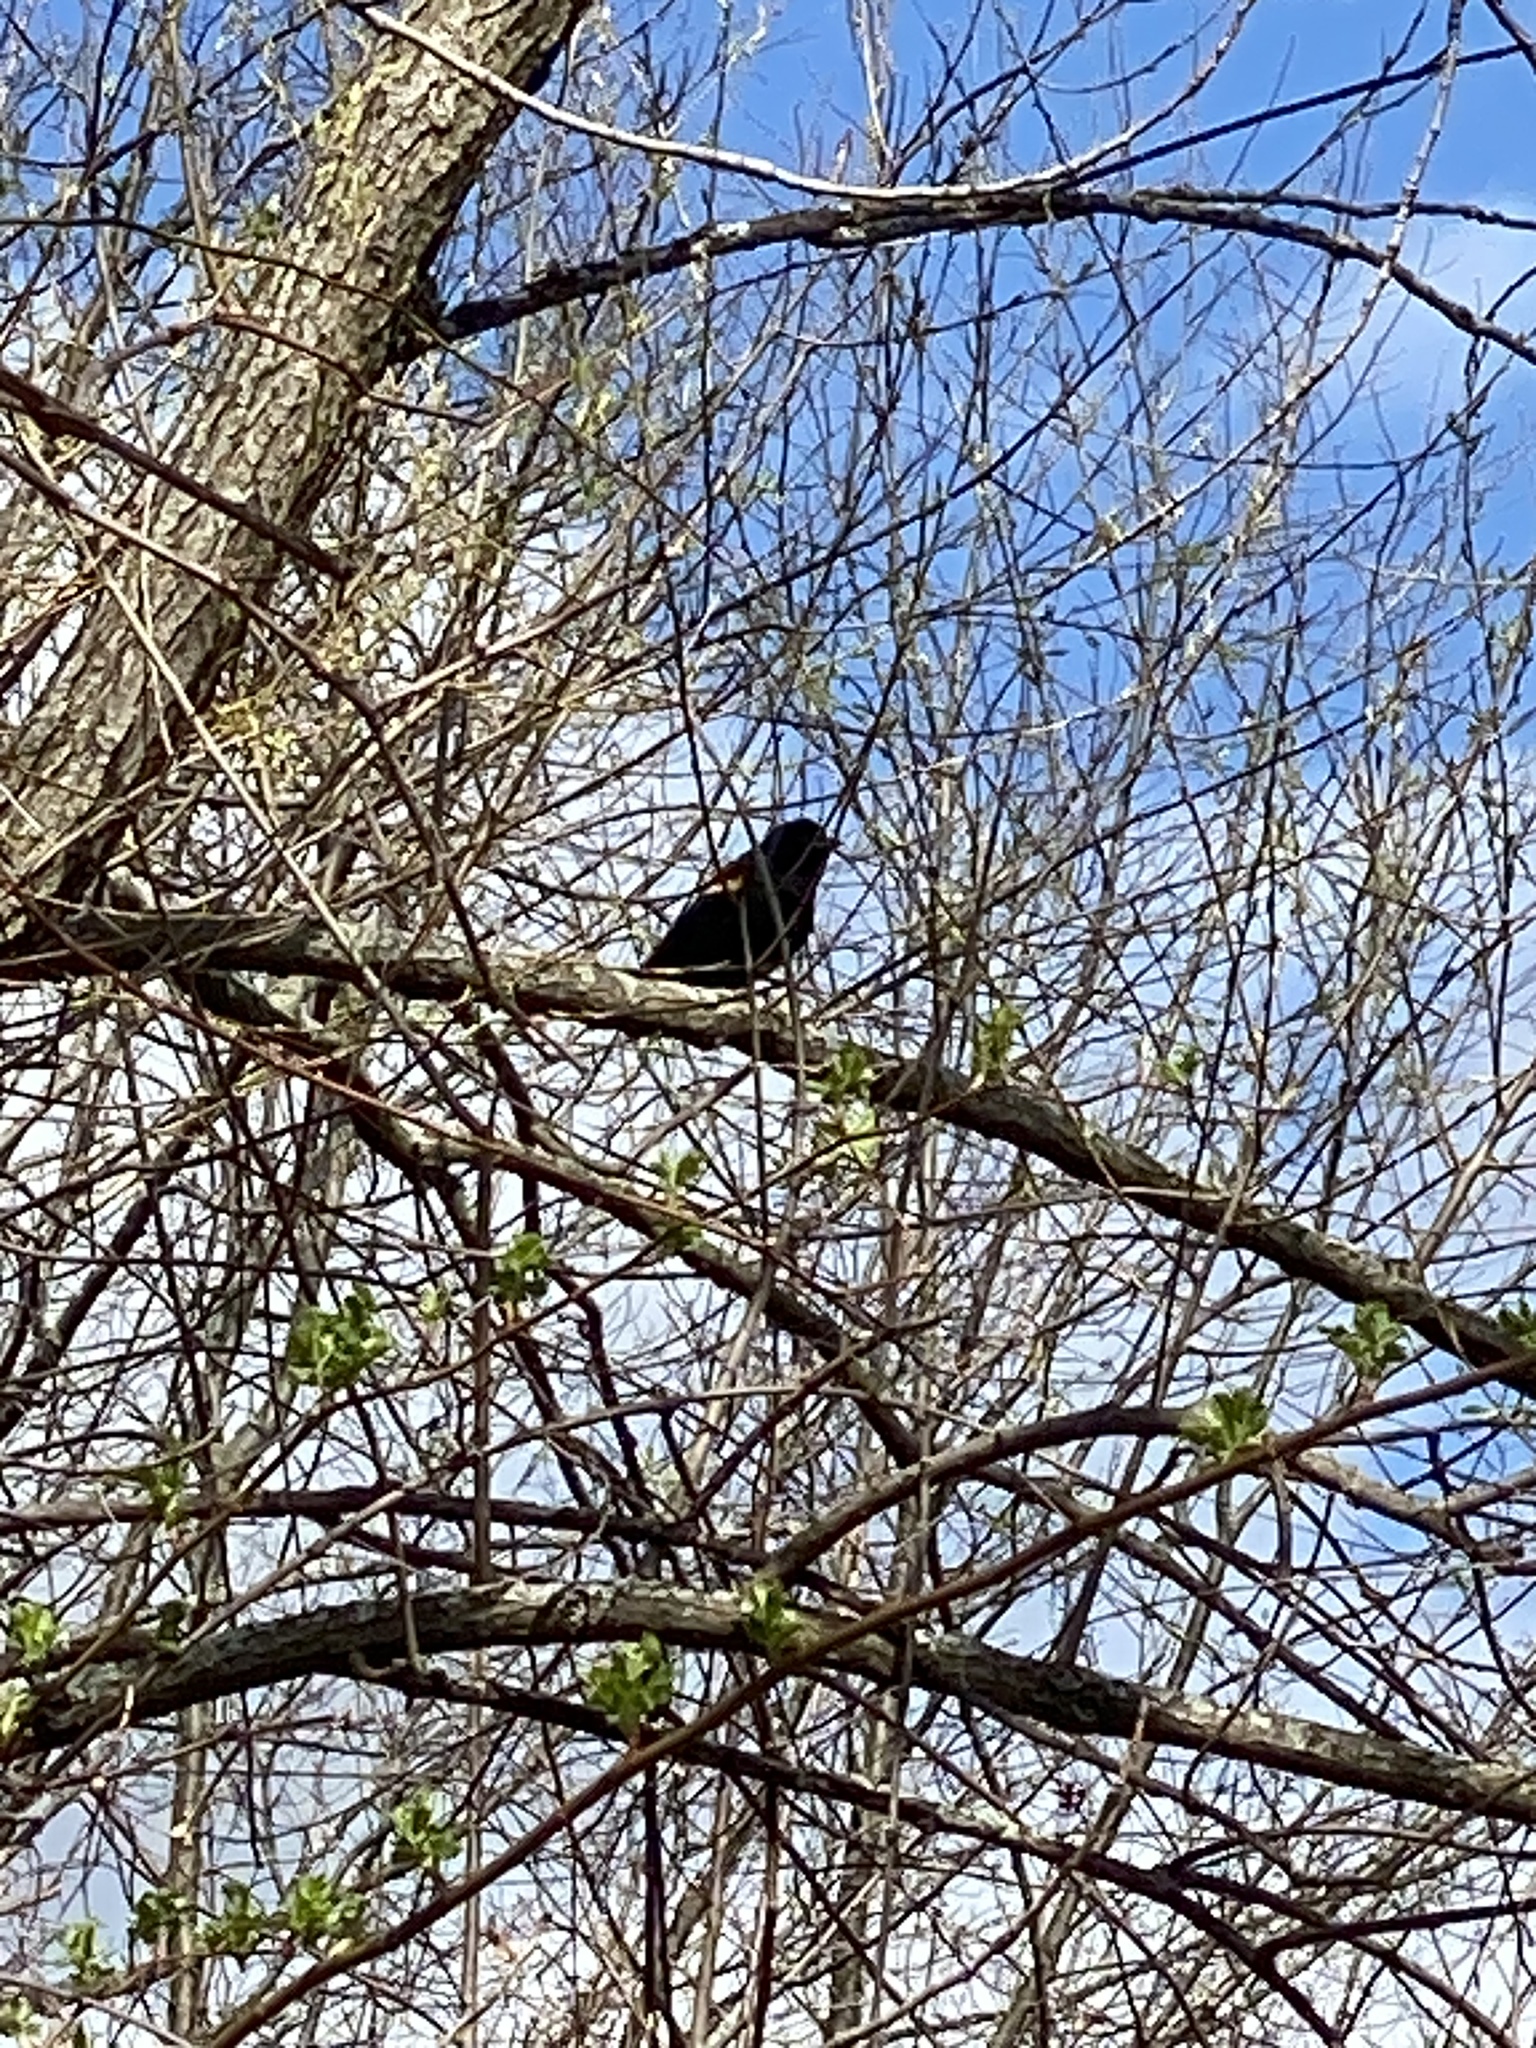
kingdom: Animalia
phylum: Chordata
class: Aves
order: Passeriformes
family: Icteridae
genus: Agelaius
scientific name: Agelaius phoeniceus
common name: Red-winged blackbird
